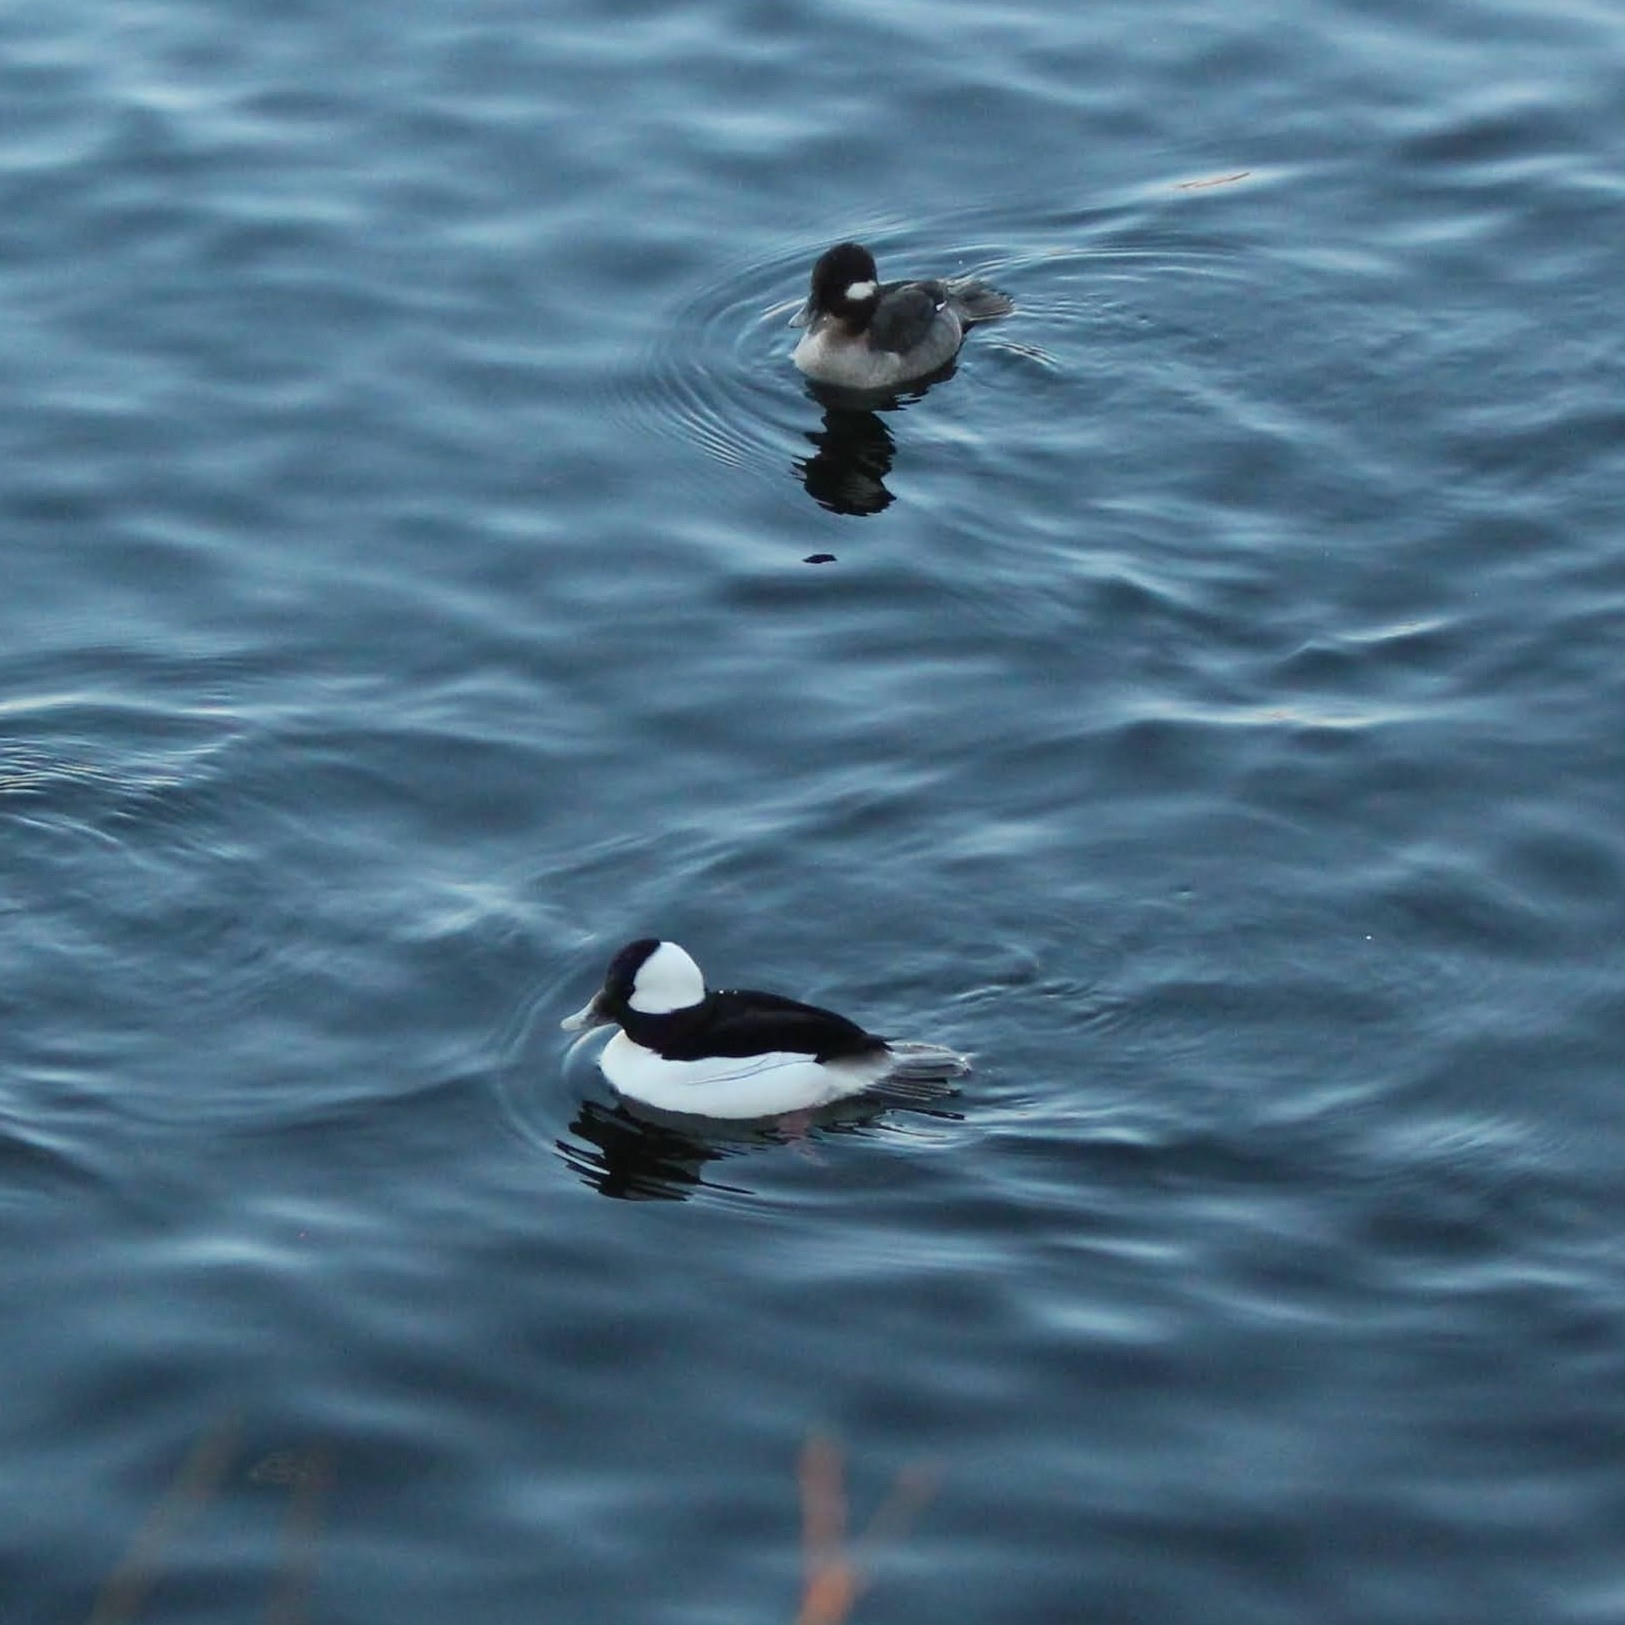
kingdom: Animalia
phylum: Chordata
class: Aves
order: Anseriformes
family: Anatidae
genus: Bucephala
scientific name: Bucephala albeola
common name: Bufflehead
